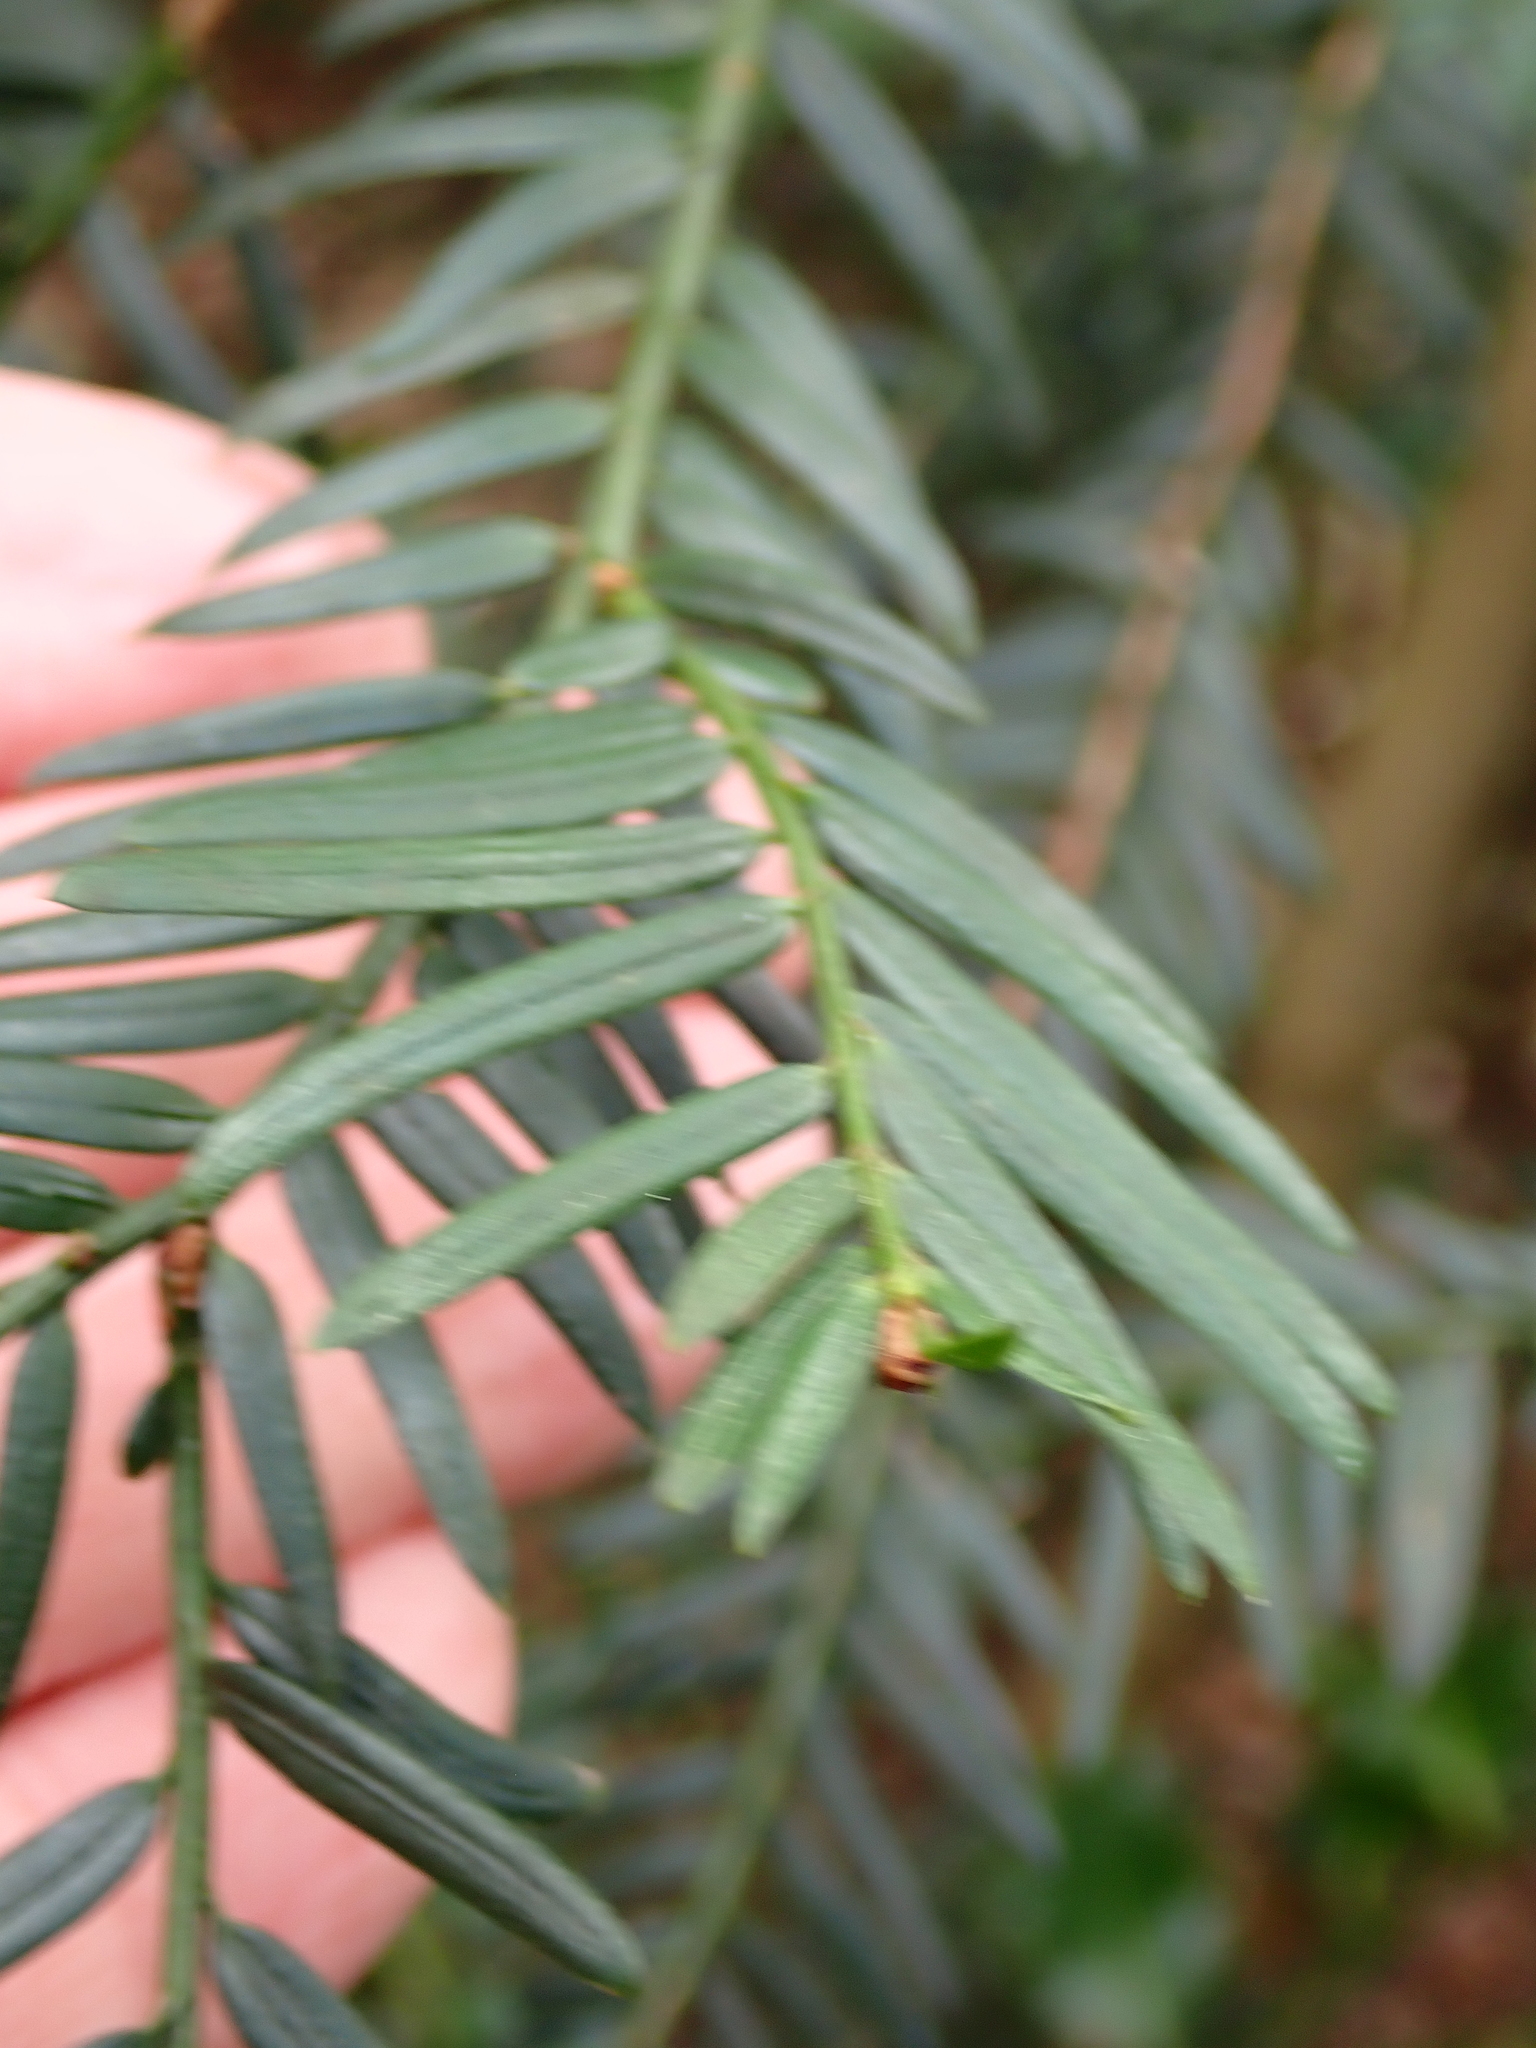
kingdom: Plantae
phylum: Tracheophyta
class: Pinopsida
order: Pinales
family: Taxaceae
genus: Taxus
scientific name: Taxus baccata
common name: Yew
